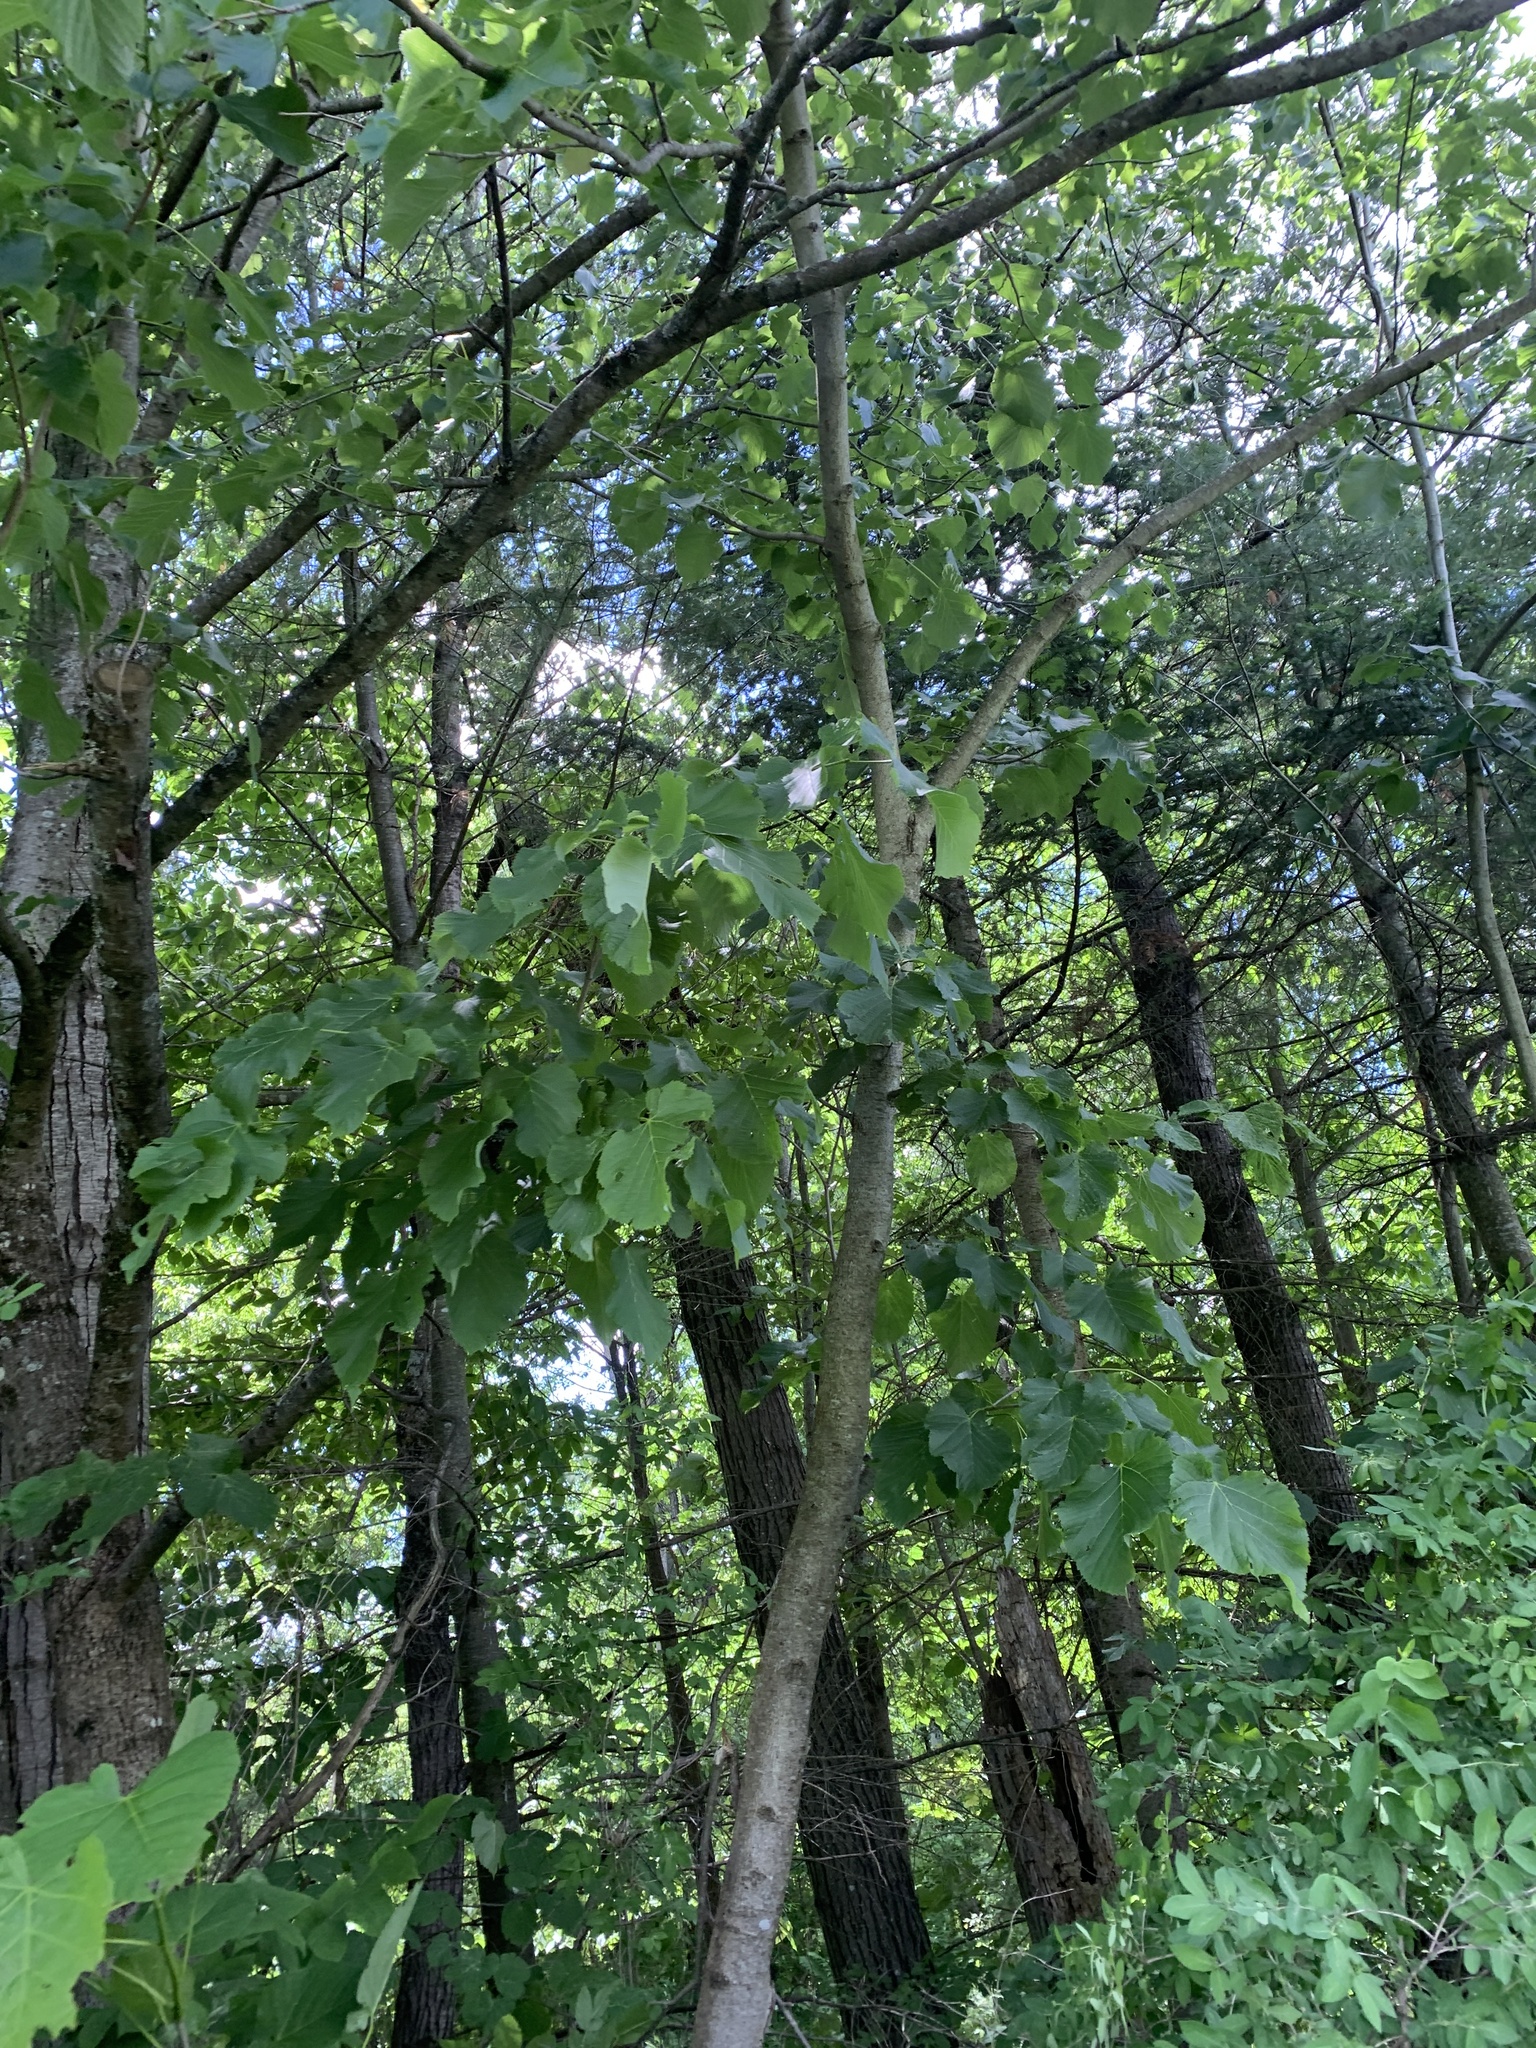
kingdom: Plantae
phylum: Tracheophyta
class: Magnoliopsida
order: Malvales
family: Malvaceae
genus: Tilia
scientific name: Tilia americana
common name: Basswood
